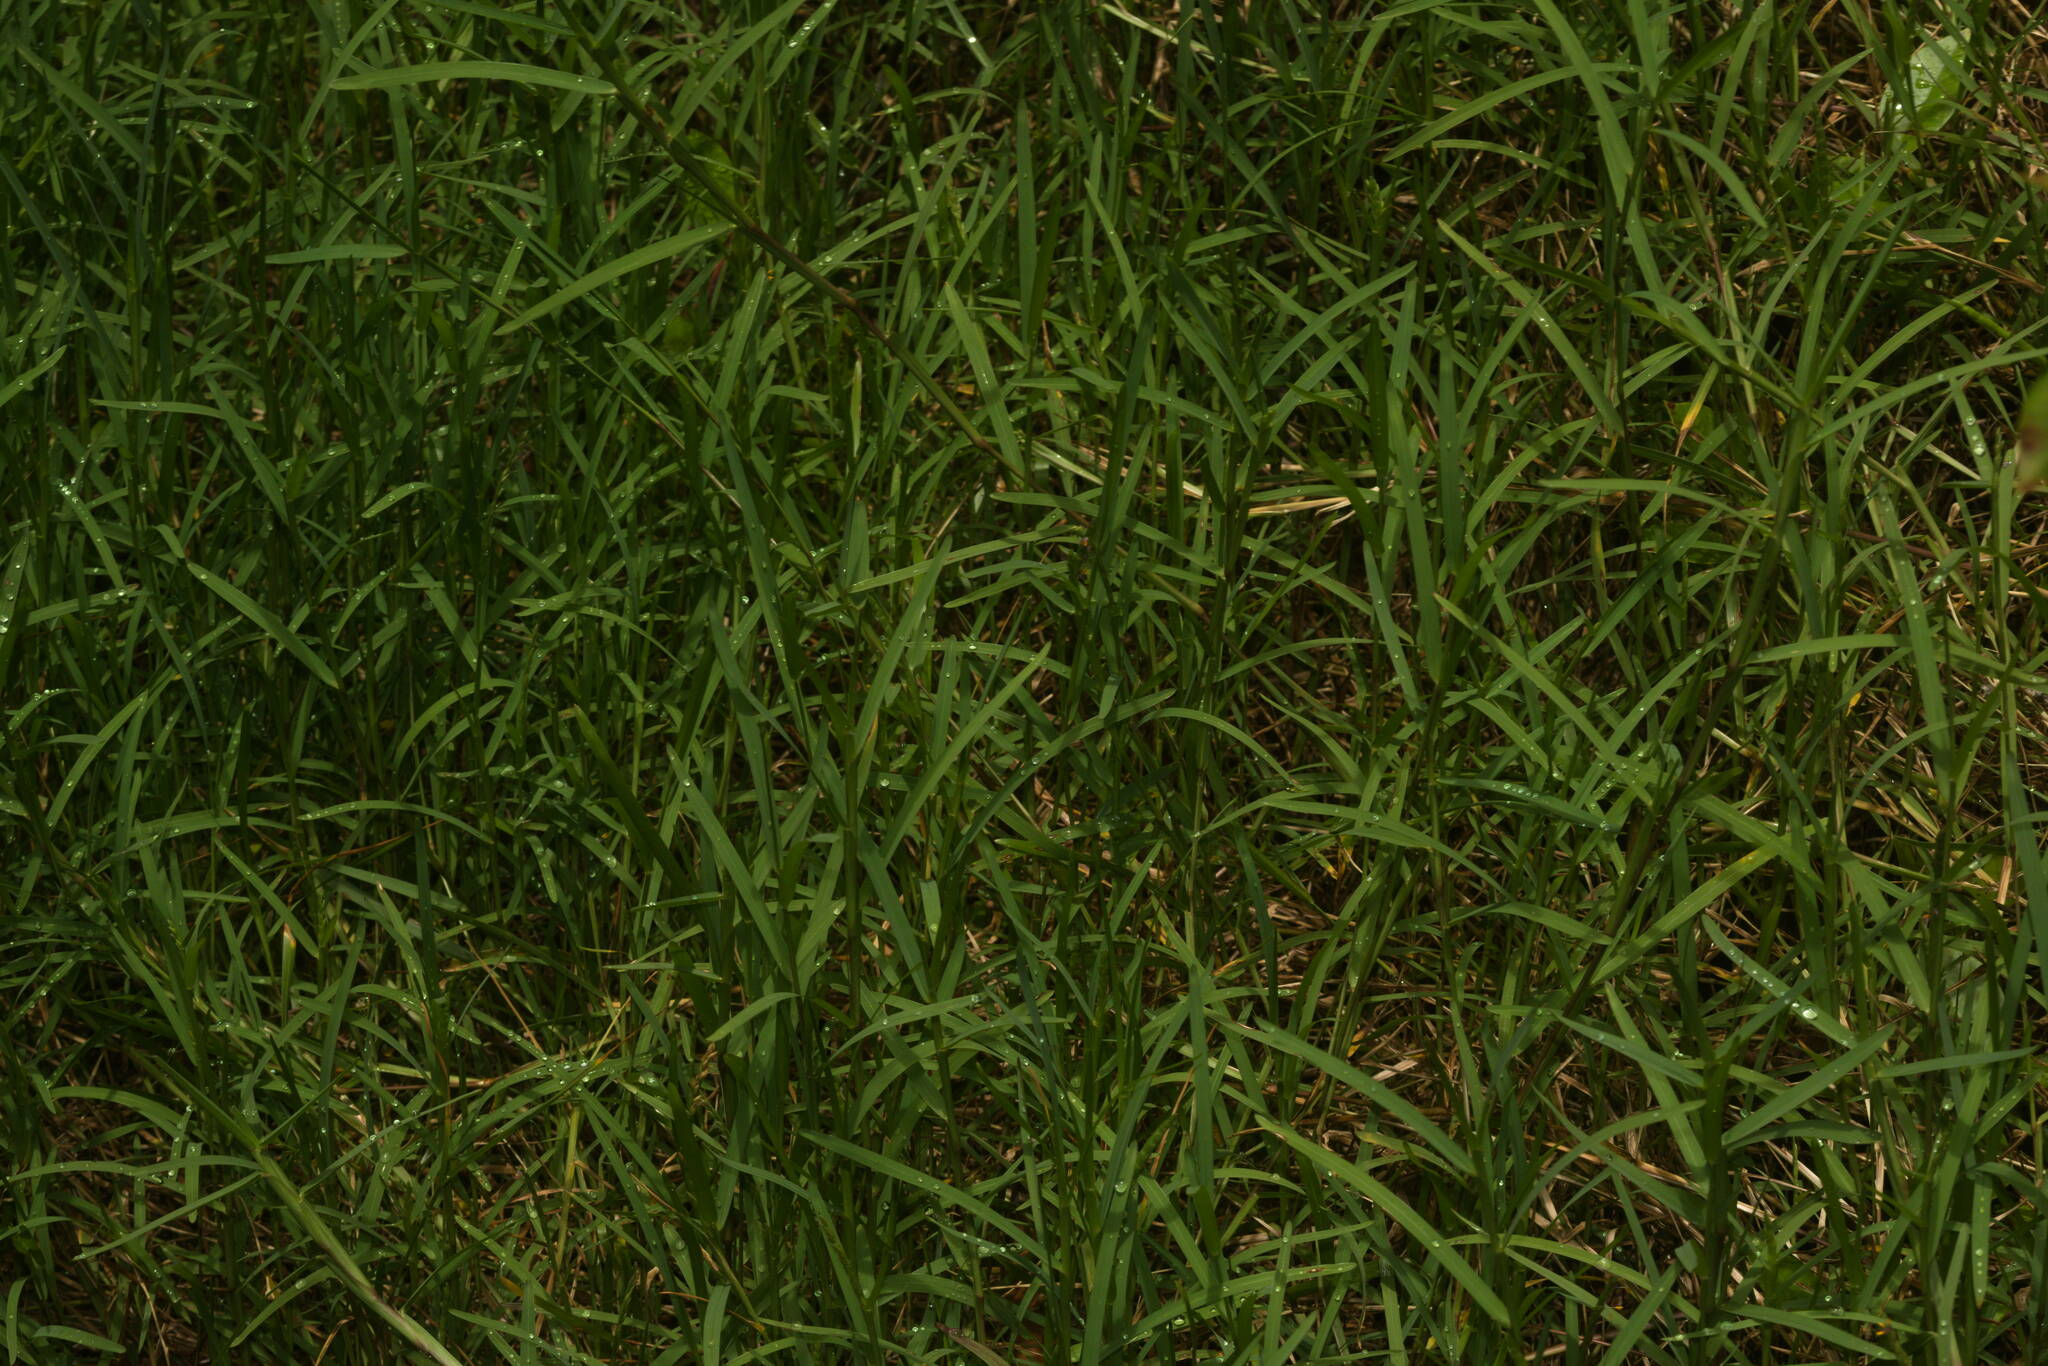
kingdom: Plantae
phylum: Tracheophyta
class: Liliopsida
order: Poales
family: Poaceae
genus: Stenotaphrum
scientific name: Stenotaphrum secundatum
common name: St. augustine grass
